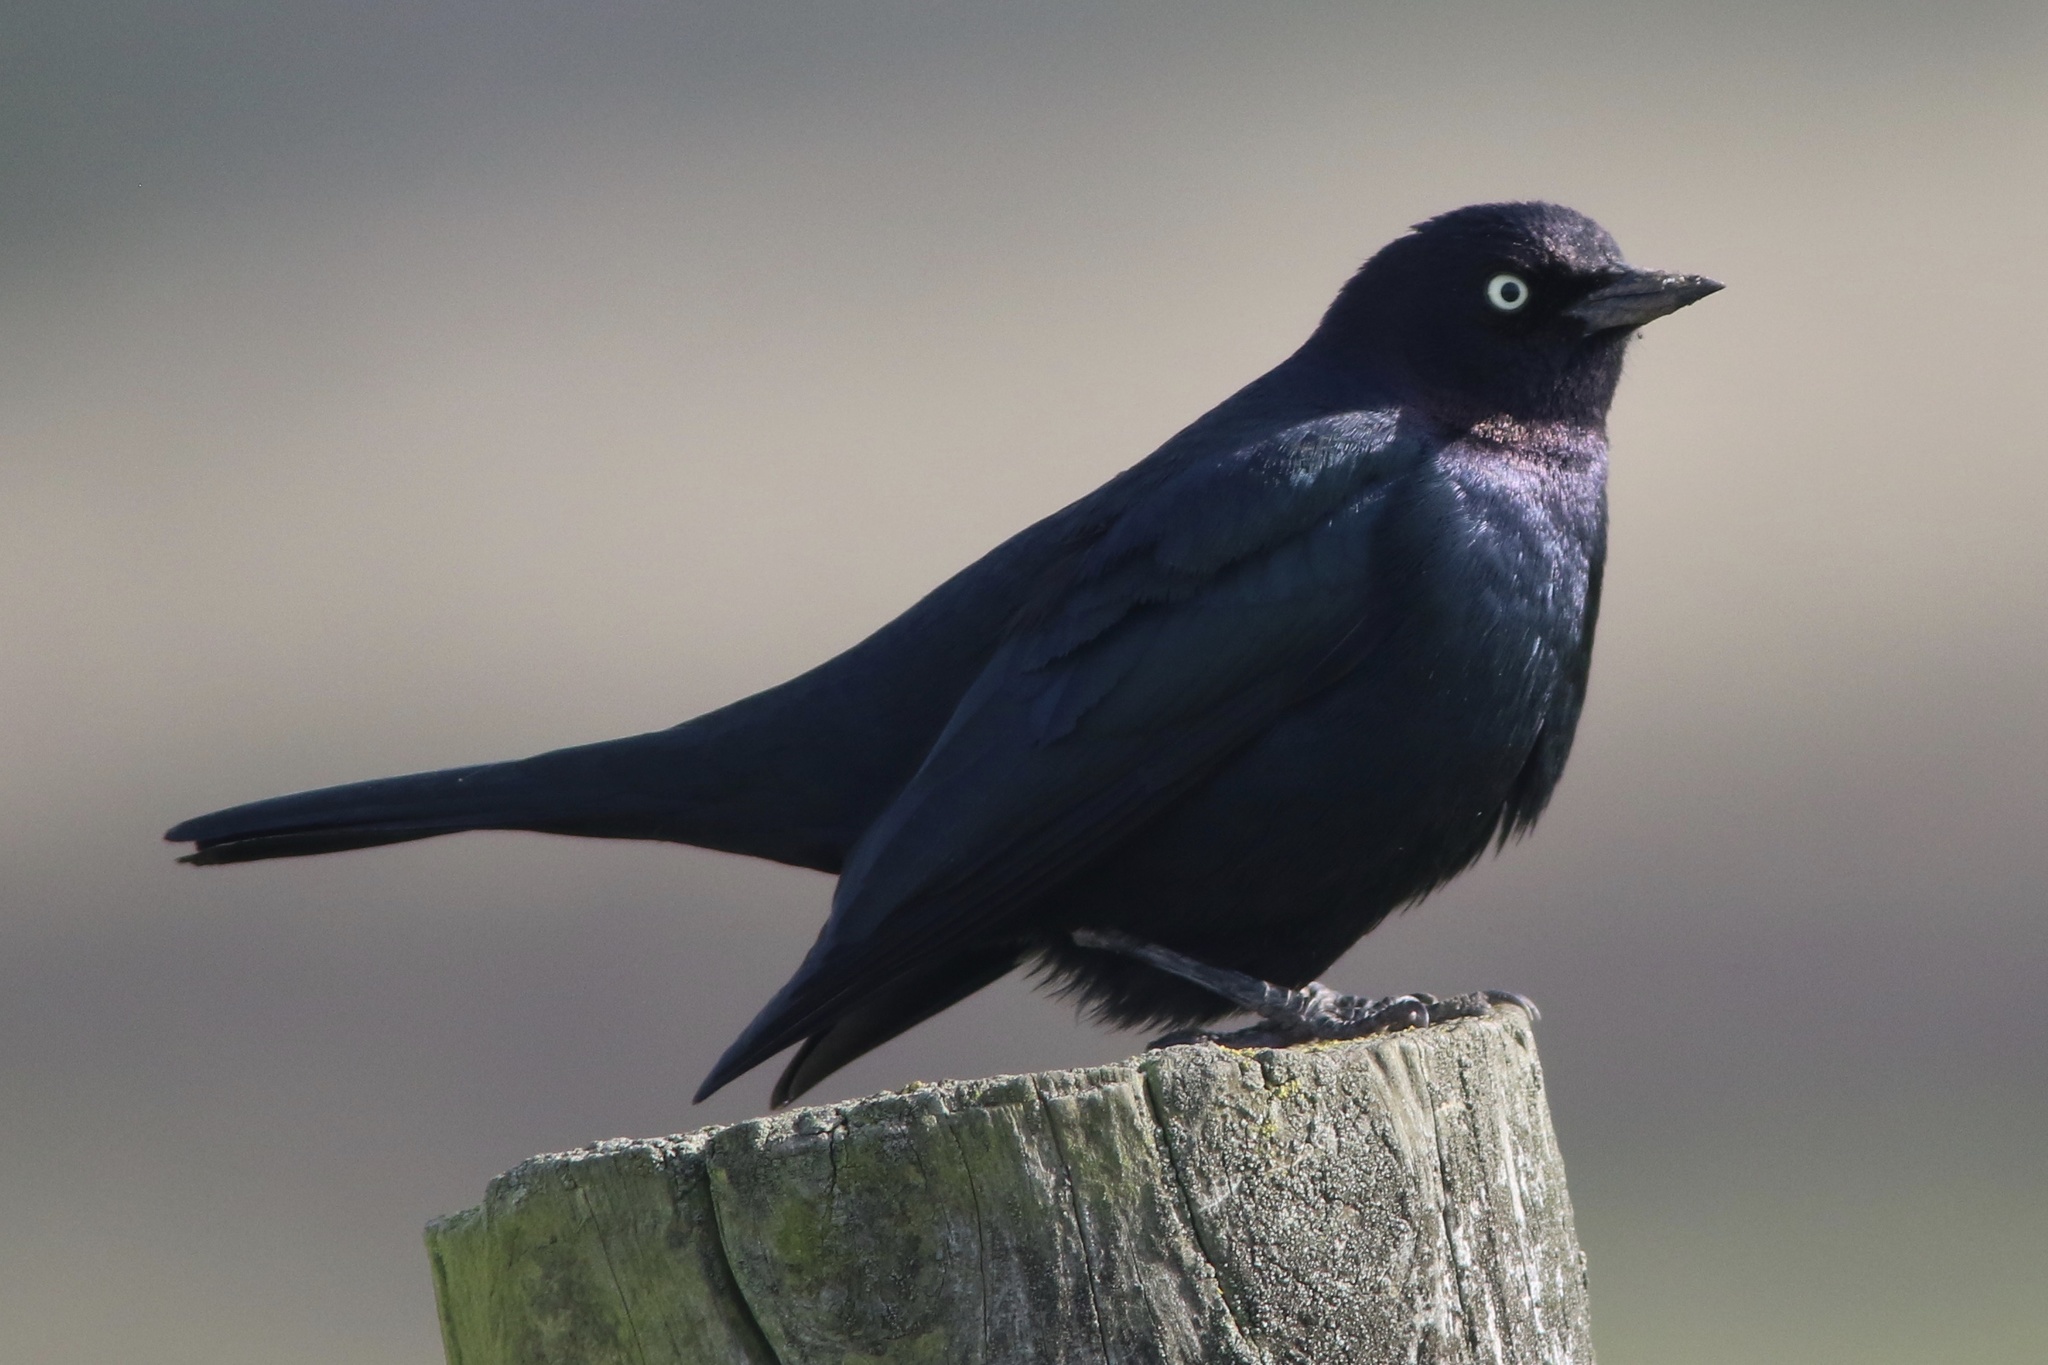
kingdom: Animalia
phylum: Chordata
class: Aves
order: Passeriformes
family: Icteridae
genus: Euphagus
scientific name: Euphagus cyanocephalus
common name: Brewer's blackbird
